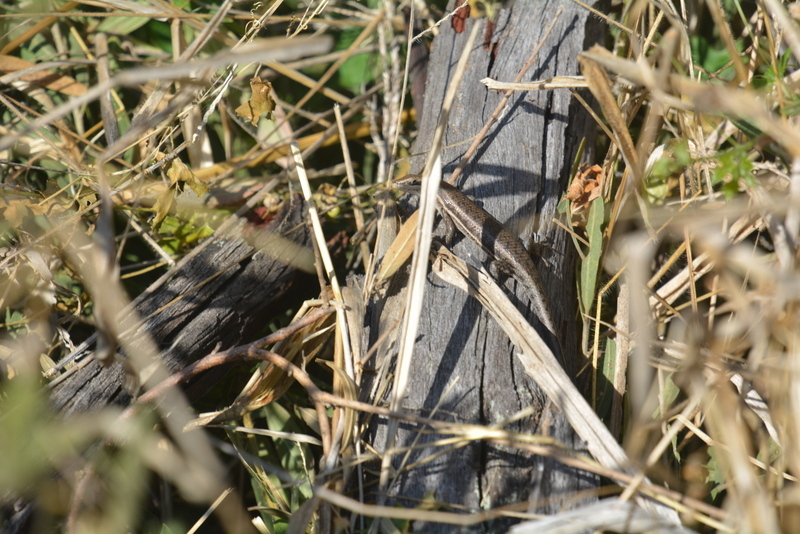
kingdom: Animalia
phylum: Chordata
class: Squamata
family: Scincidae
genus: Trachylepis
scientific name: Trachylepis damarana
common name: Damara skink
